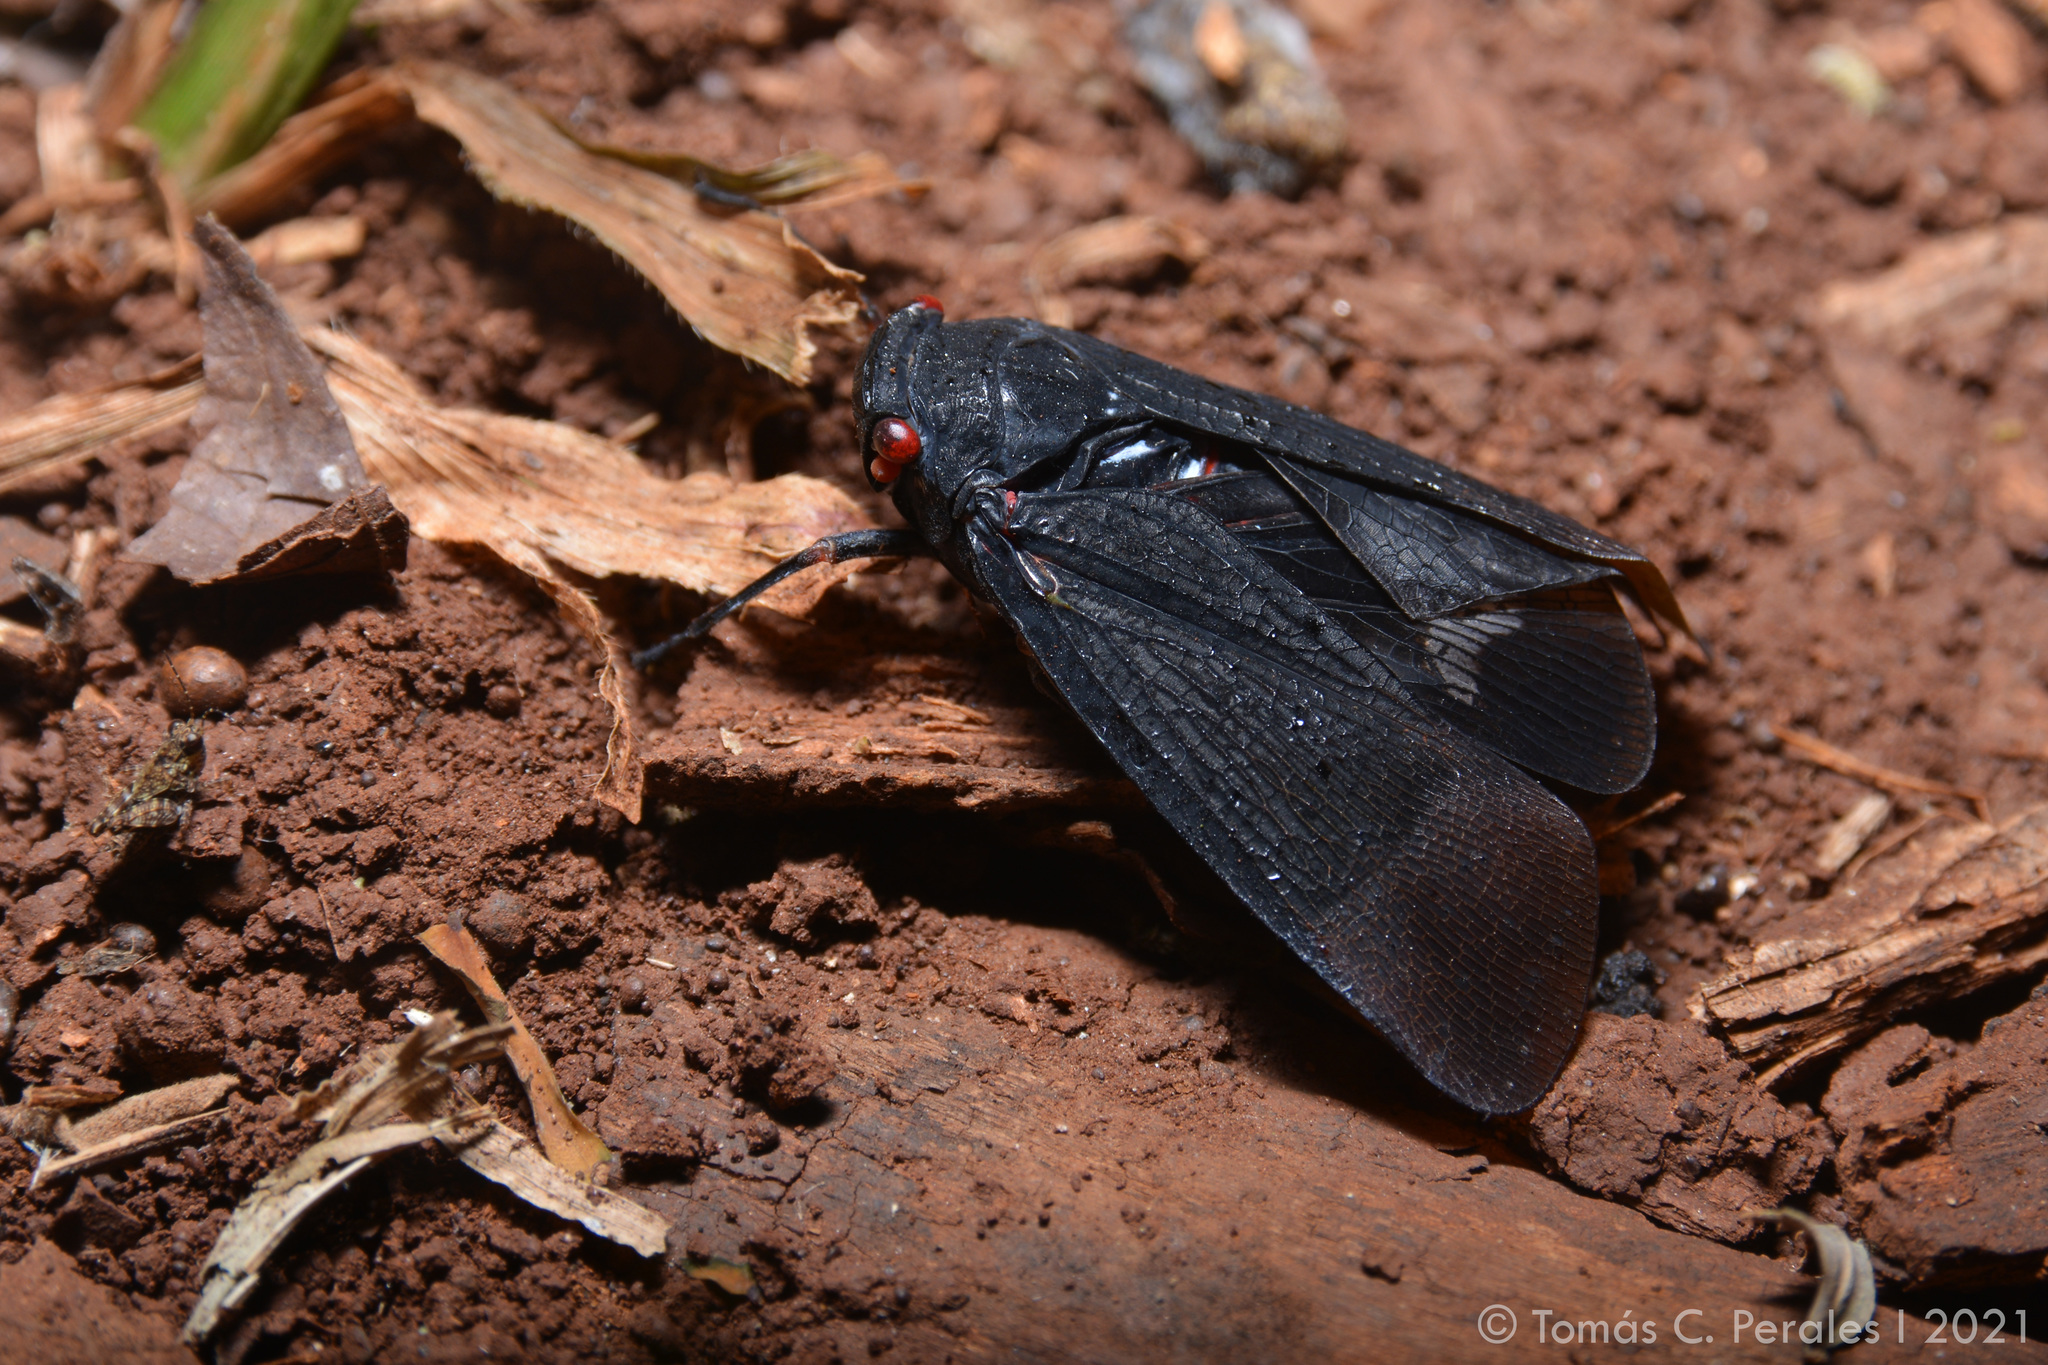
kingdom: Animalia
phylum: Arthropoda
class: Insecta
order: Hemiptera
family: Fulgoridae
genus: Zeunasa
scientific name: Zeunasa turca
